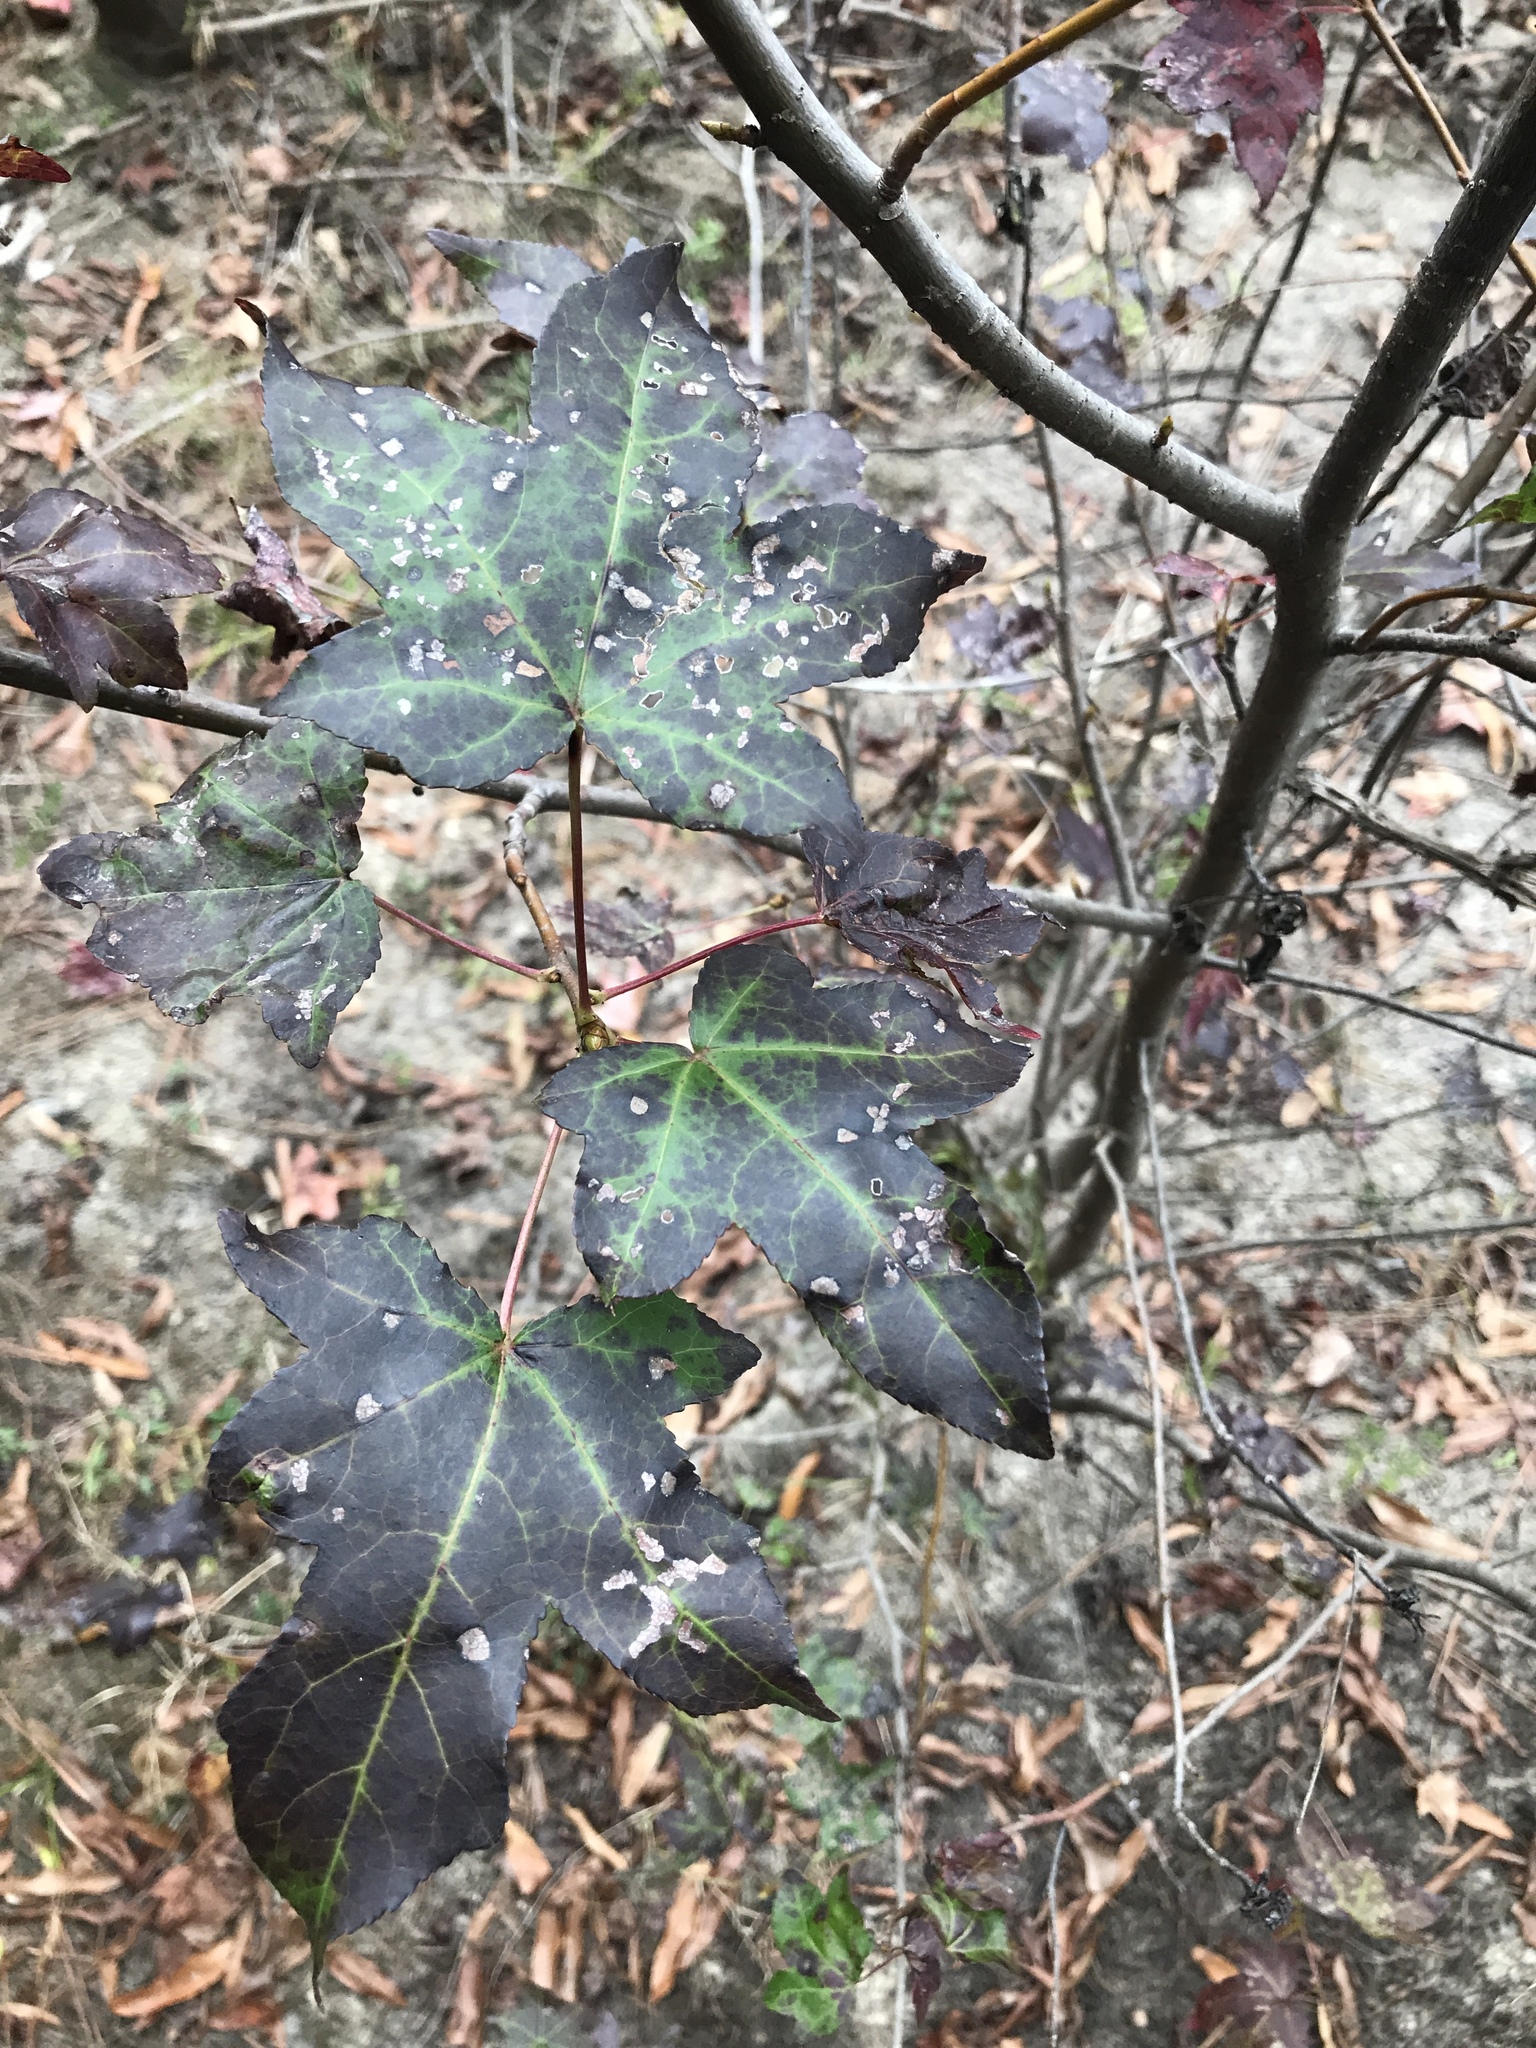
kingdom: Plantae
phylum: Tracheophyta
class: Magnoliopsida
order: Saxifragales
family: Altingiaceae
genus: Liquidambar
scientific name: Liquidambar styraciflua
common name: Sweet gum
